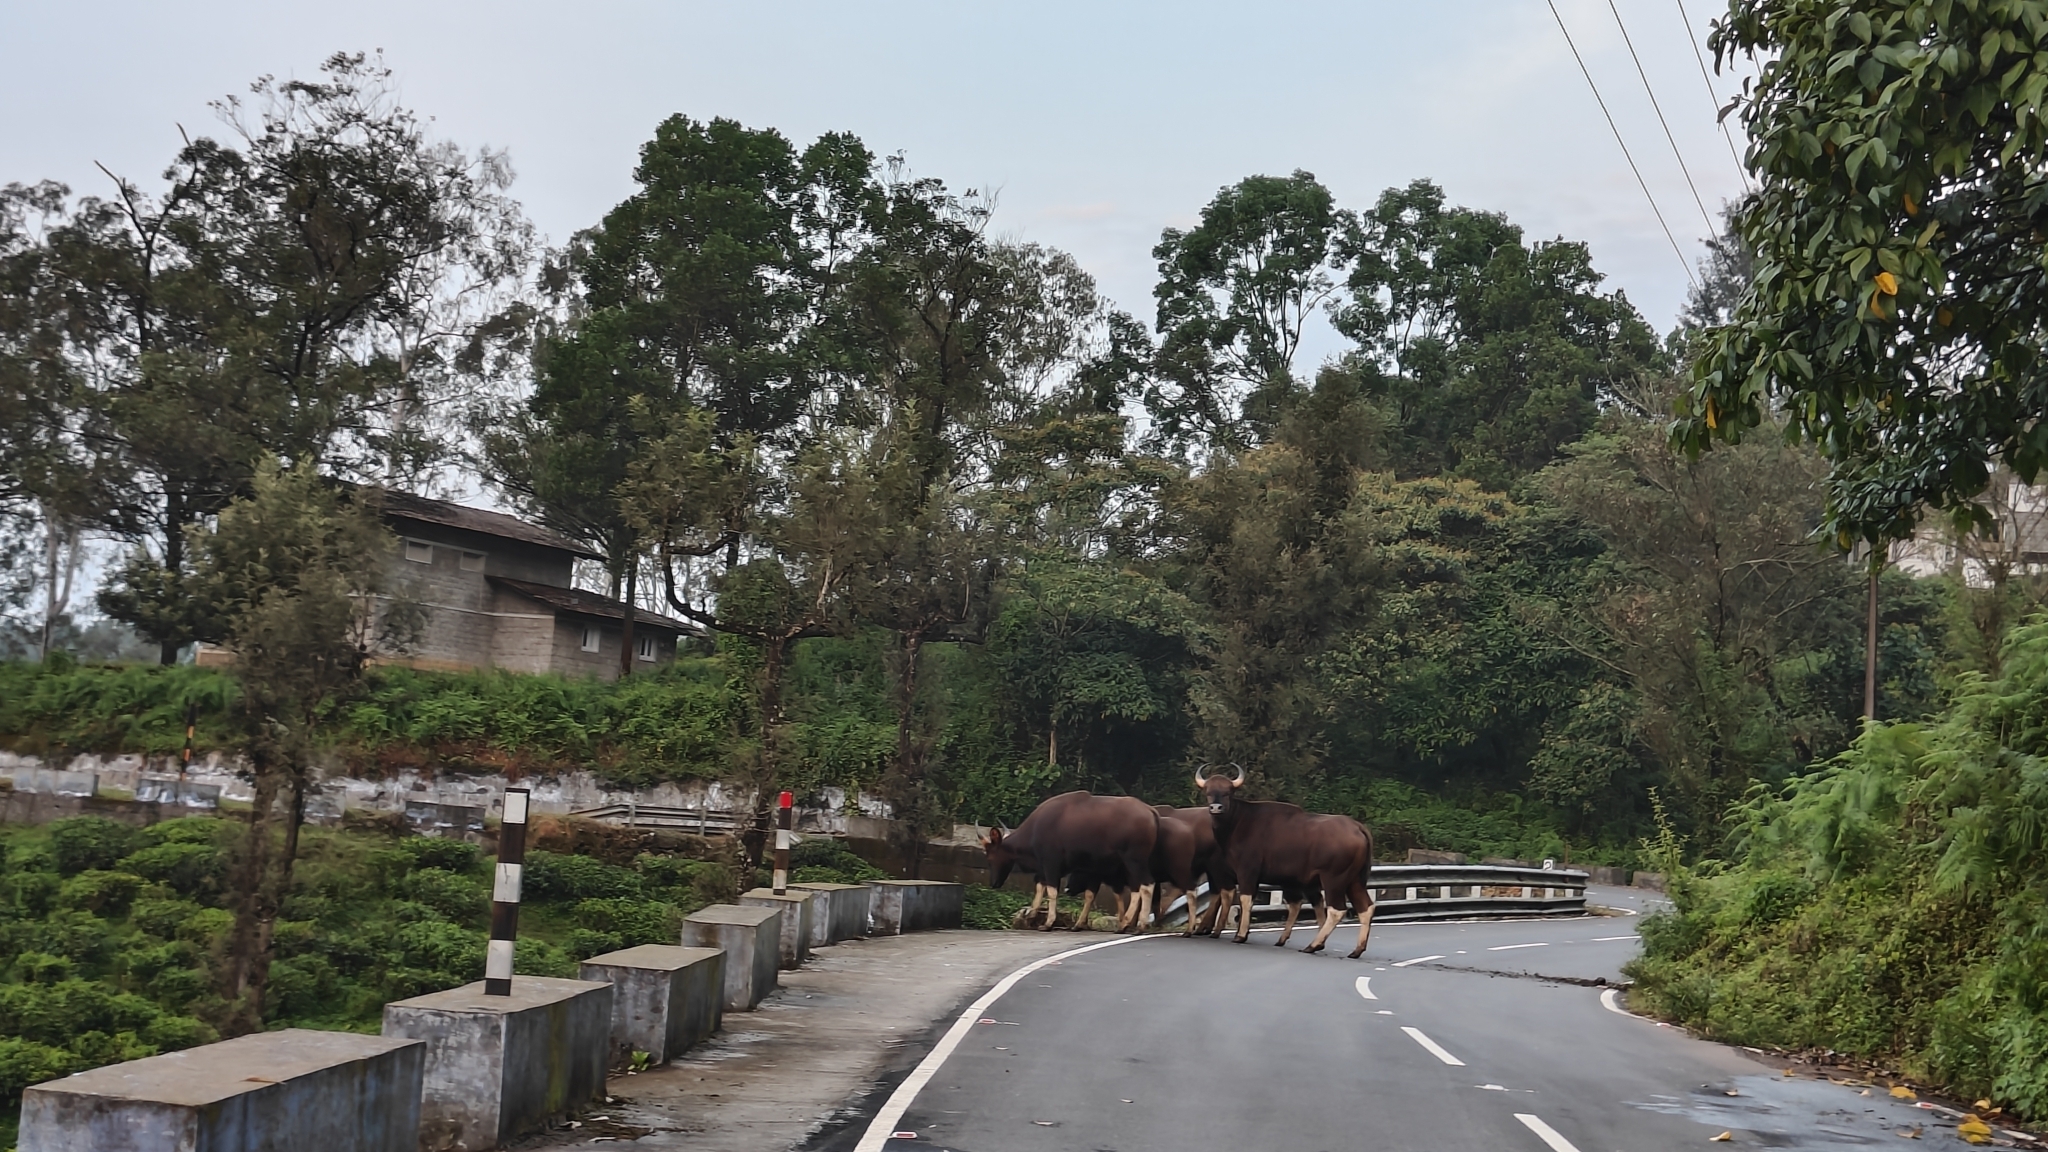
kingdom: Animalia
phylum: Chordata
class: Mammalia
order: Artiodactyla
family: Bovidae
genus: Bos
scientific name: Bos frontalis
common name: Gaur
